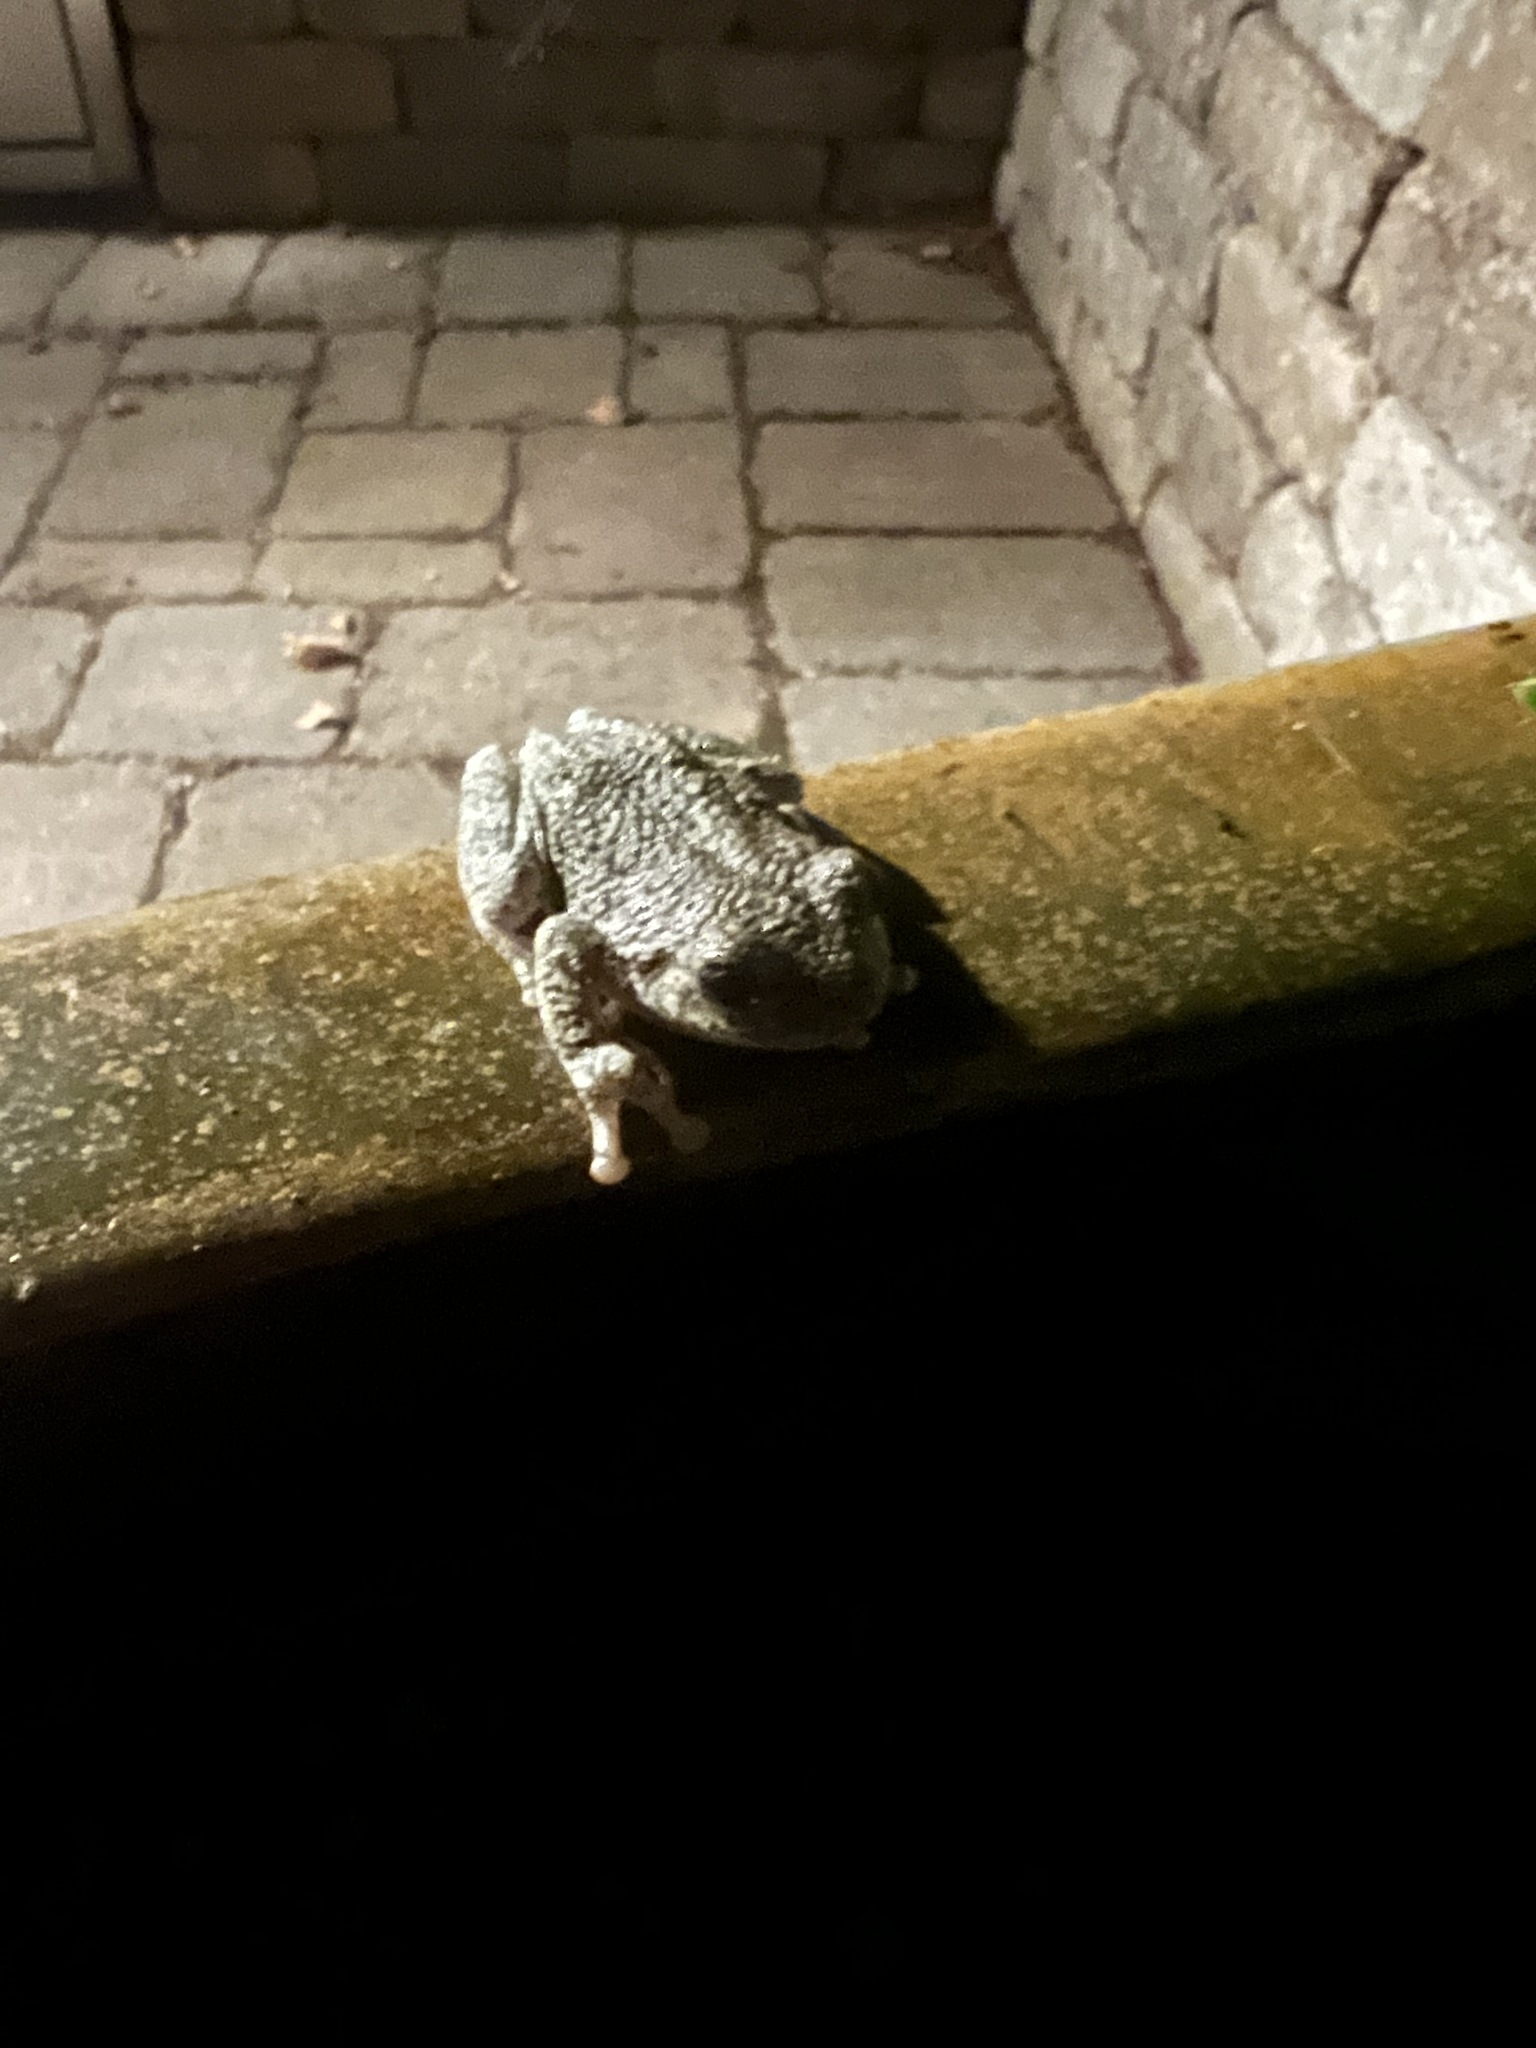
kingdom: Animalia
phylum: Chordata
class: Amphibia
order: Anura
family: Hylidae
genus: Hyla
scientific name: Hyla
